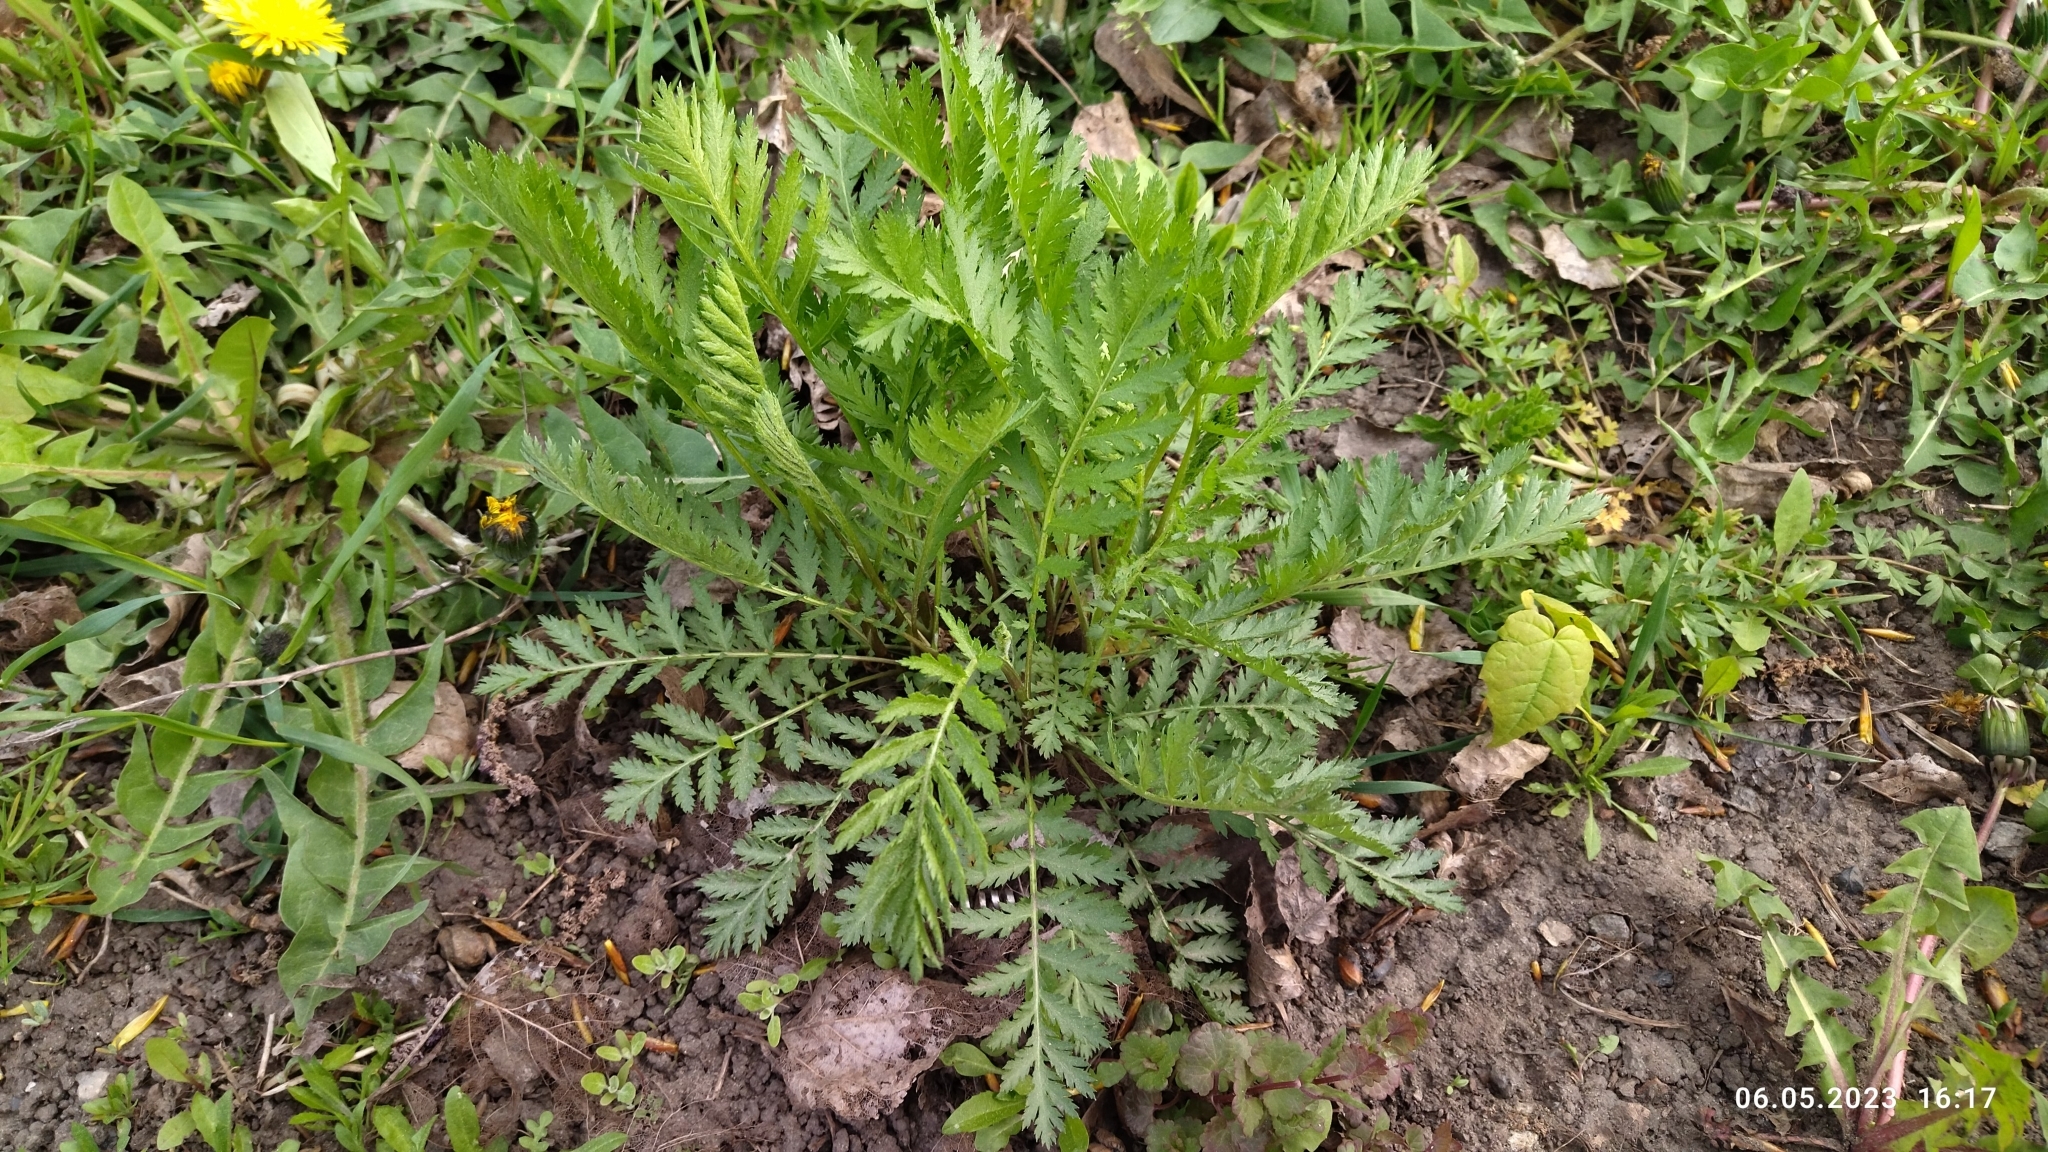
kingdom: Plantae
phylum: Tracheophyta
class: Magnoliopsida
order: Asterales
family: Asteraceae
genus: Tanacetum
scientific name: Tanacetum vulgare
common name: Common tansy
